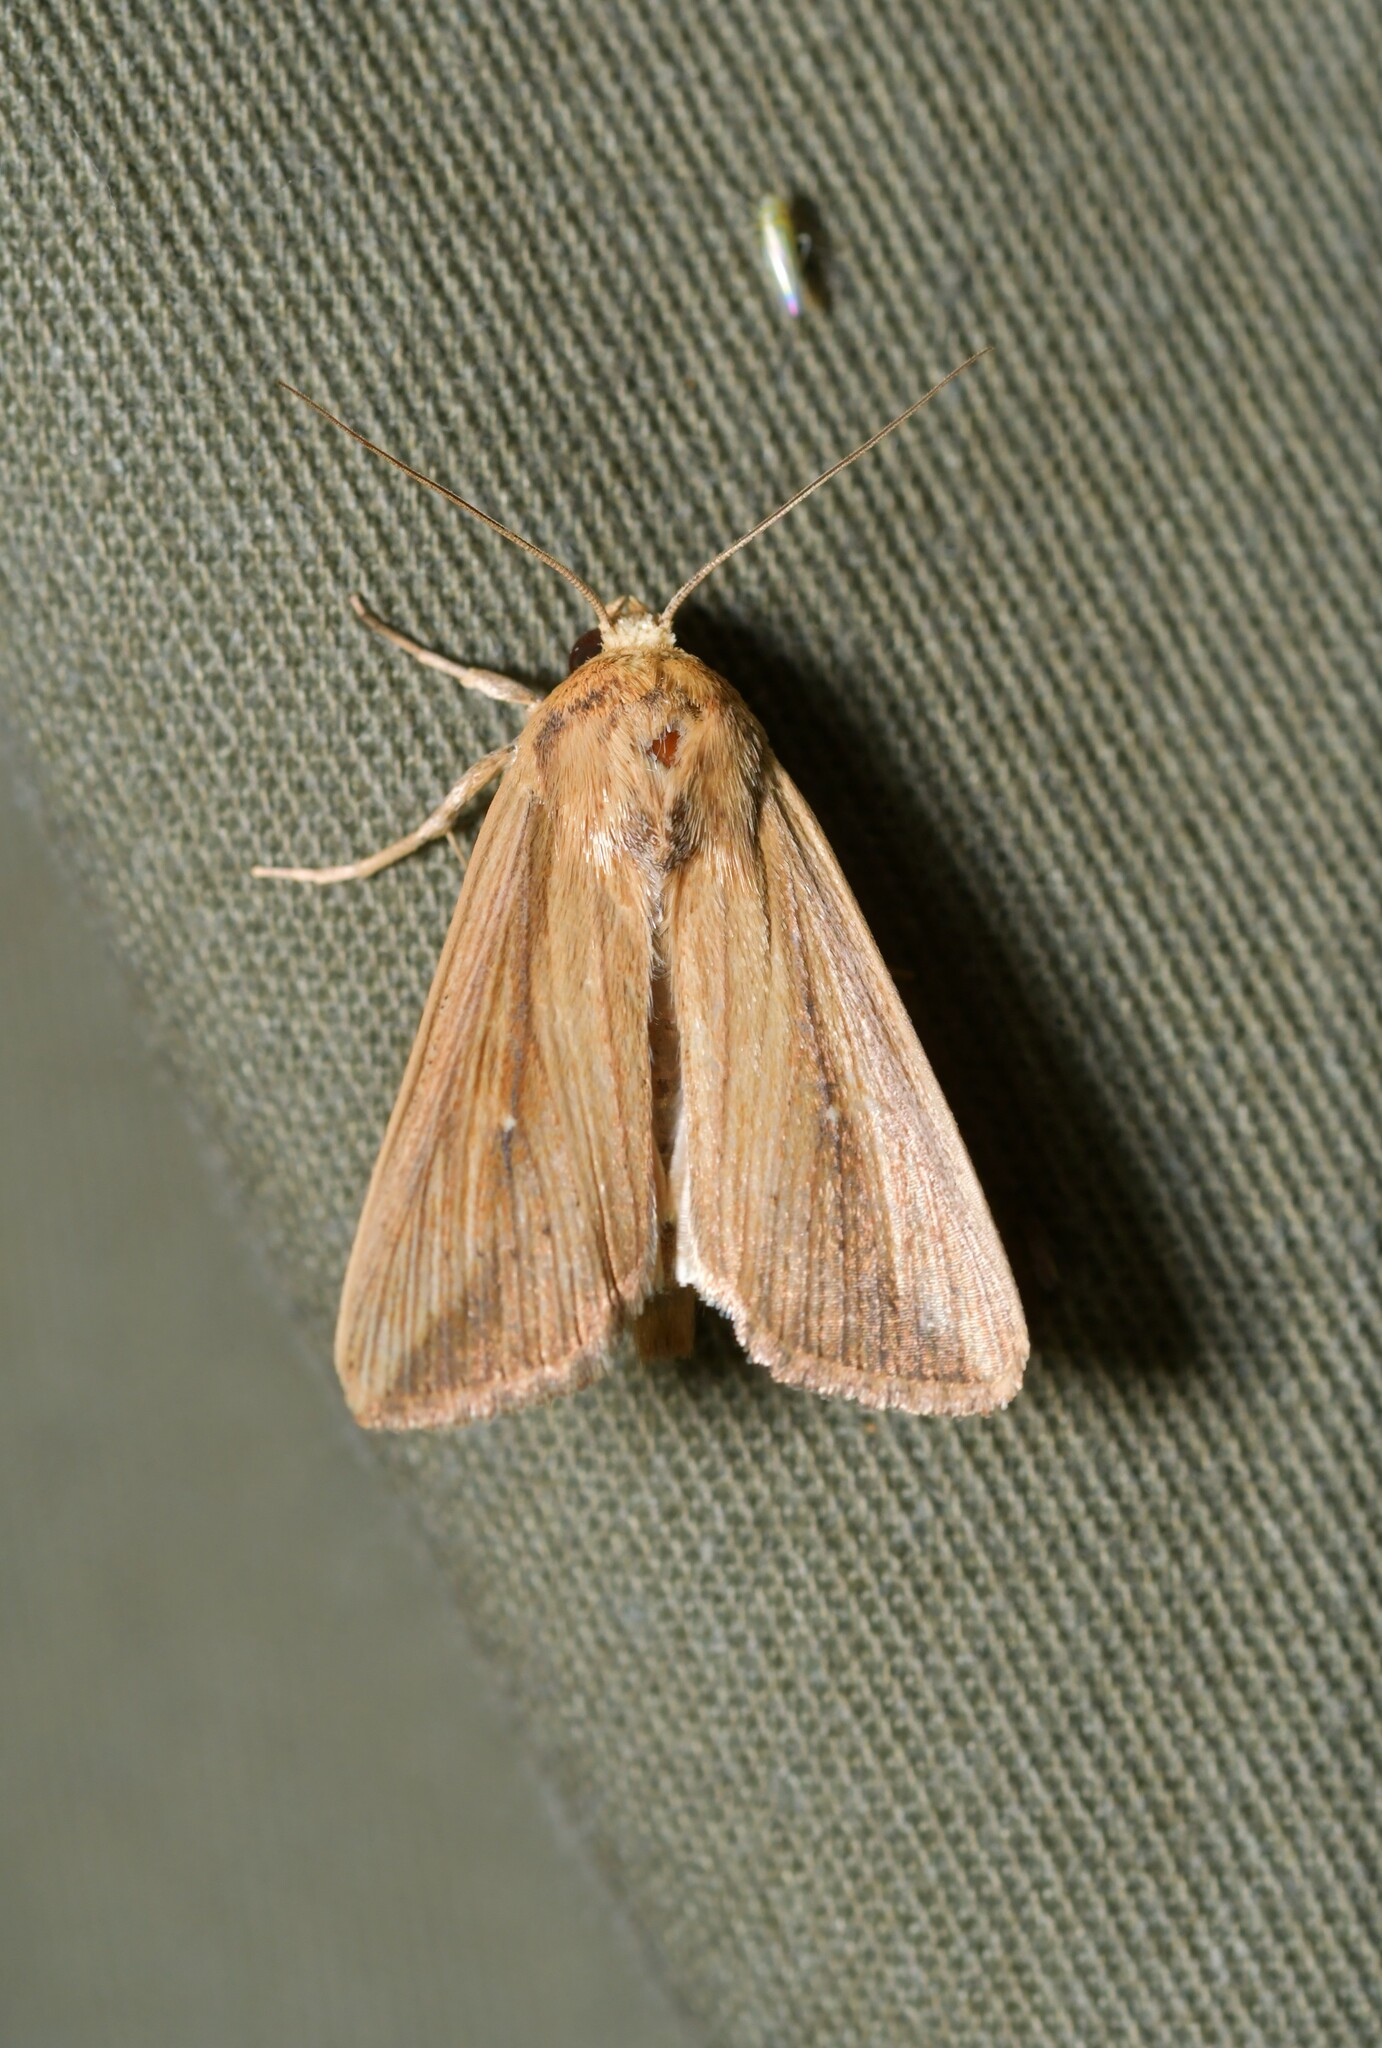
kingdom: Animalia
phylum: Arthropoda
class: Insecta
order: Lepidoptera
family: Noctuidae
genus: Leucania
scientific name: Leucania loreyi
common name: The cosmopolitan
